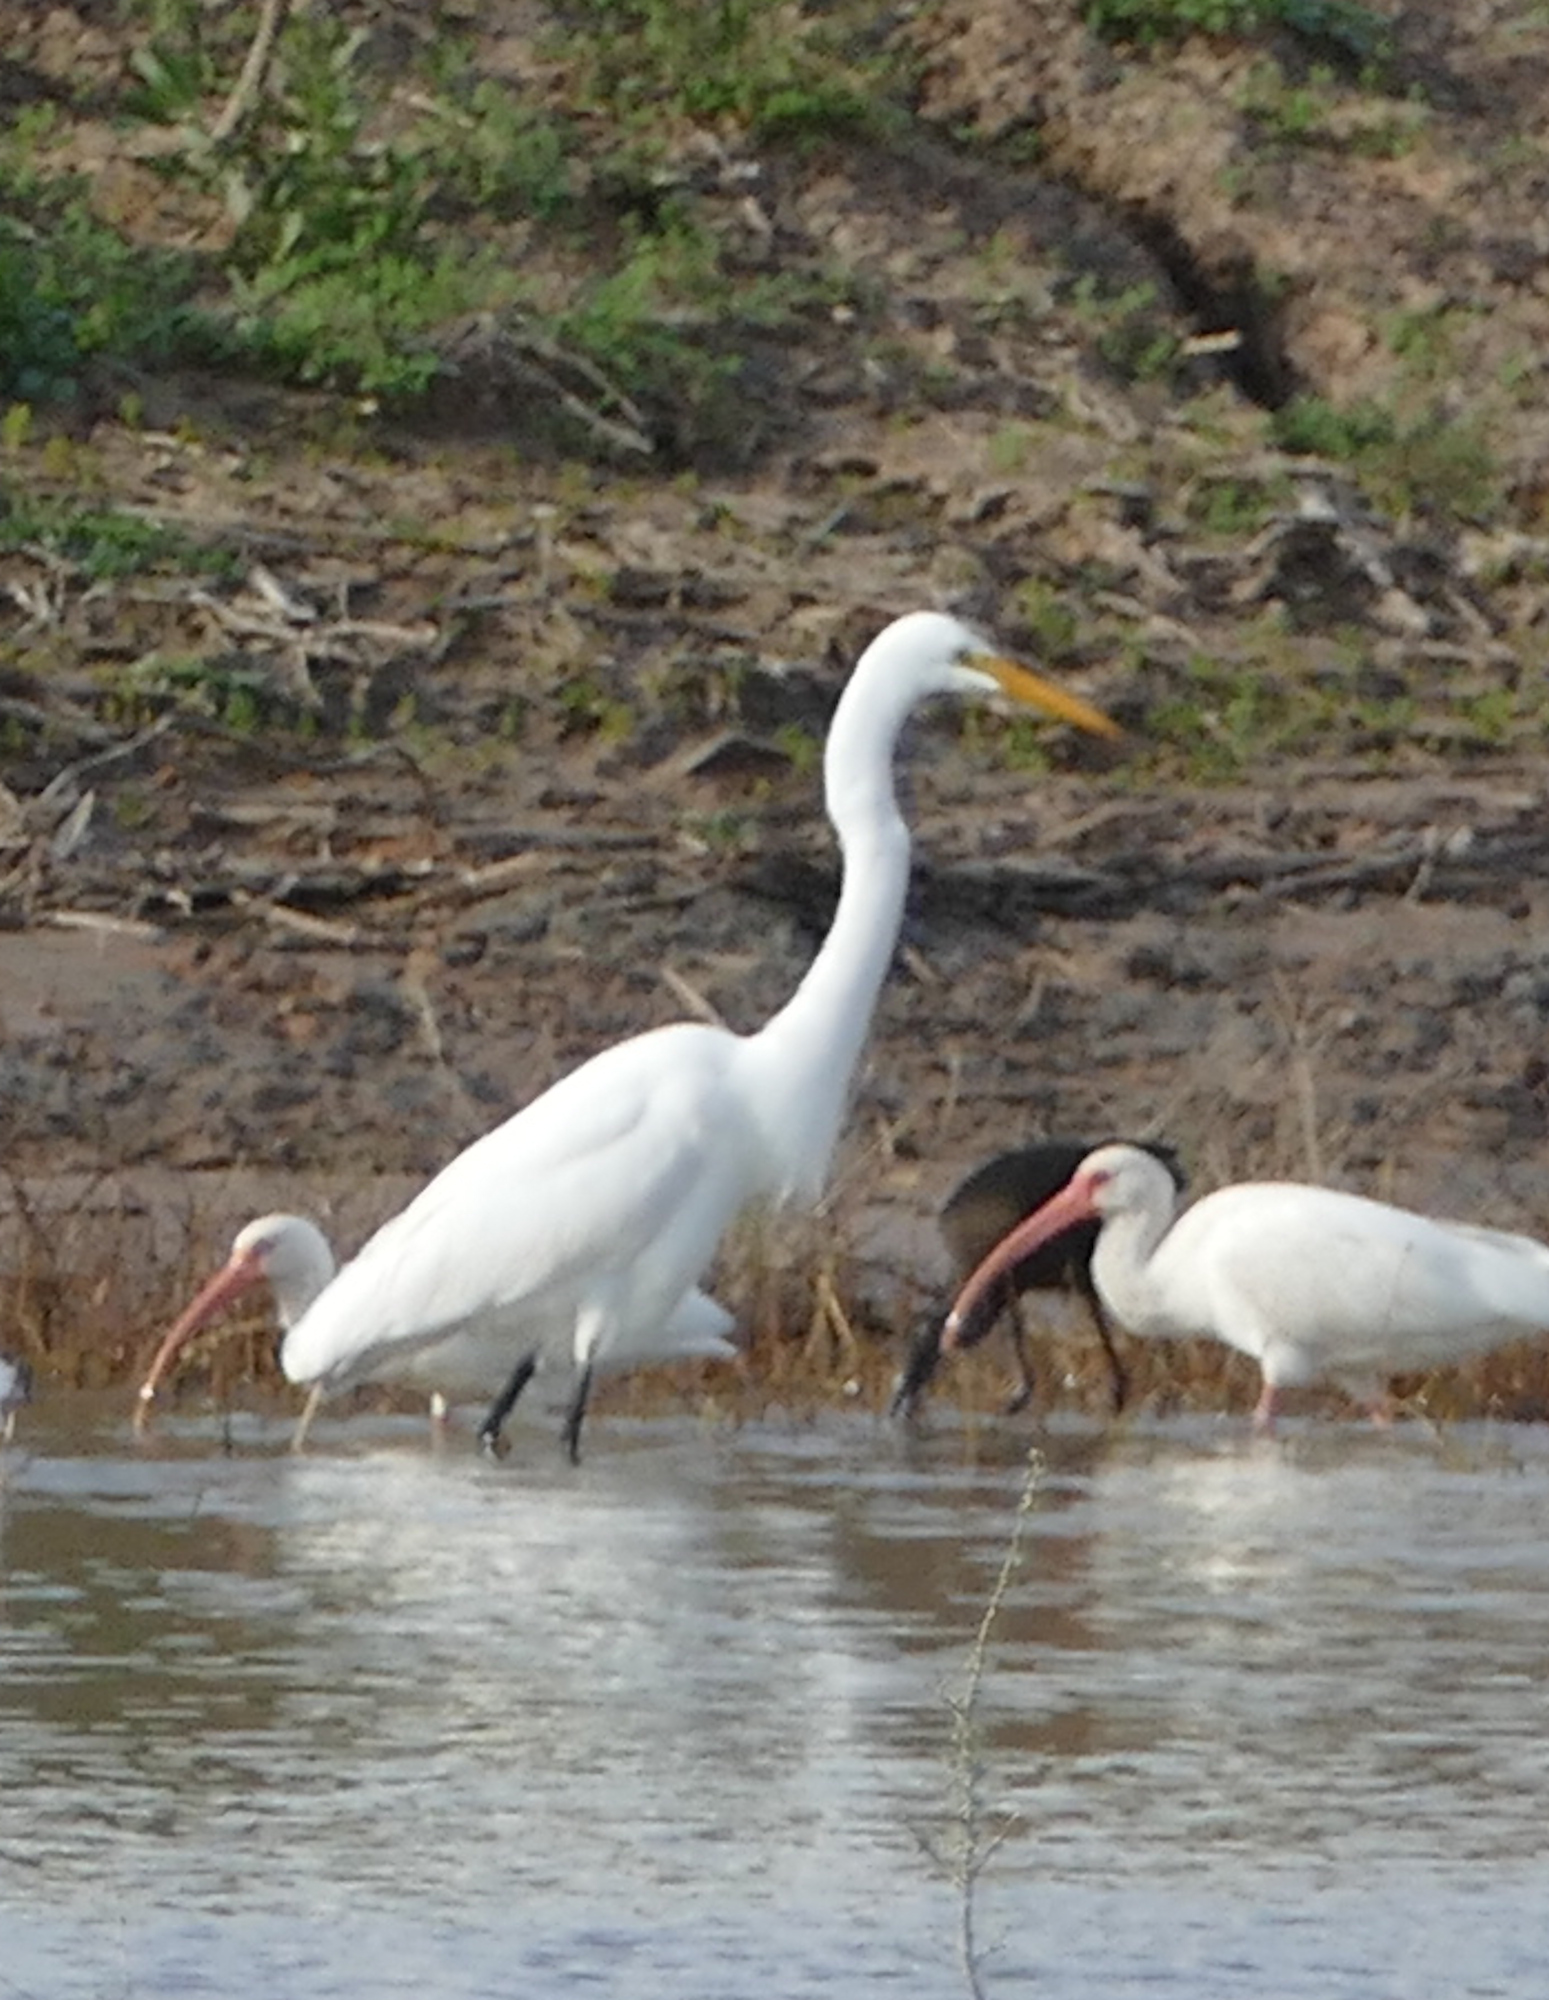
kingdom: Animalia
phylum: Chordata
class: Aves
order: Pelecaniformes
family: Ardeidae
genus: Ardea
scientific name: Ardea alba
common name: Great egret
